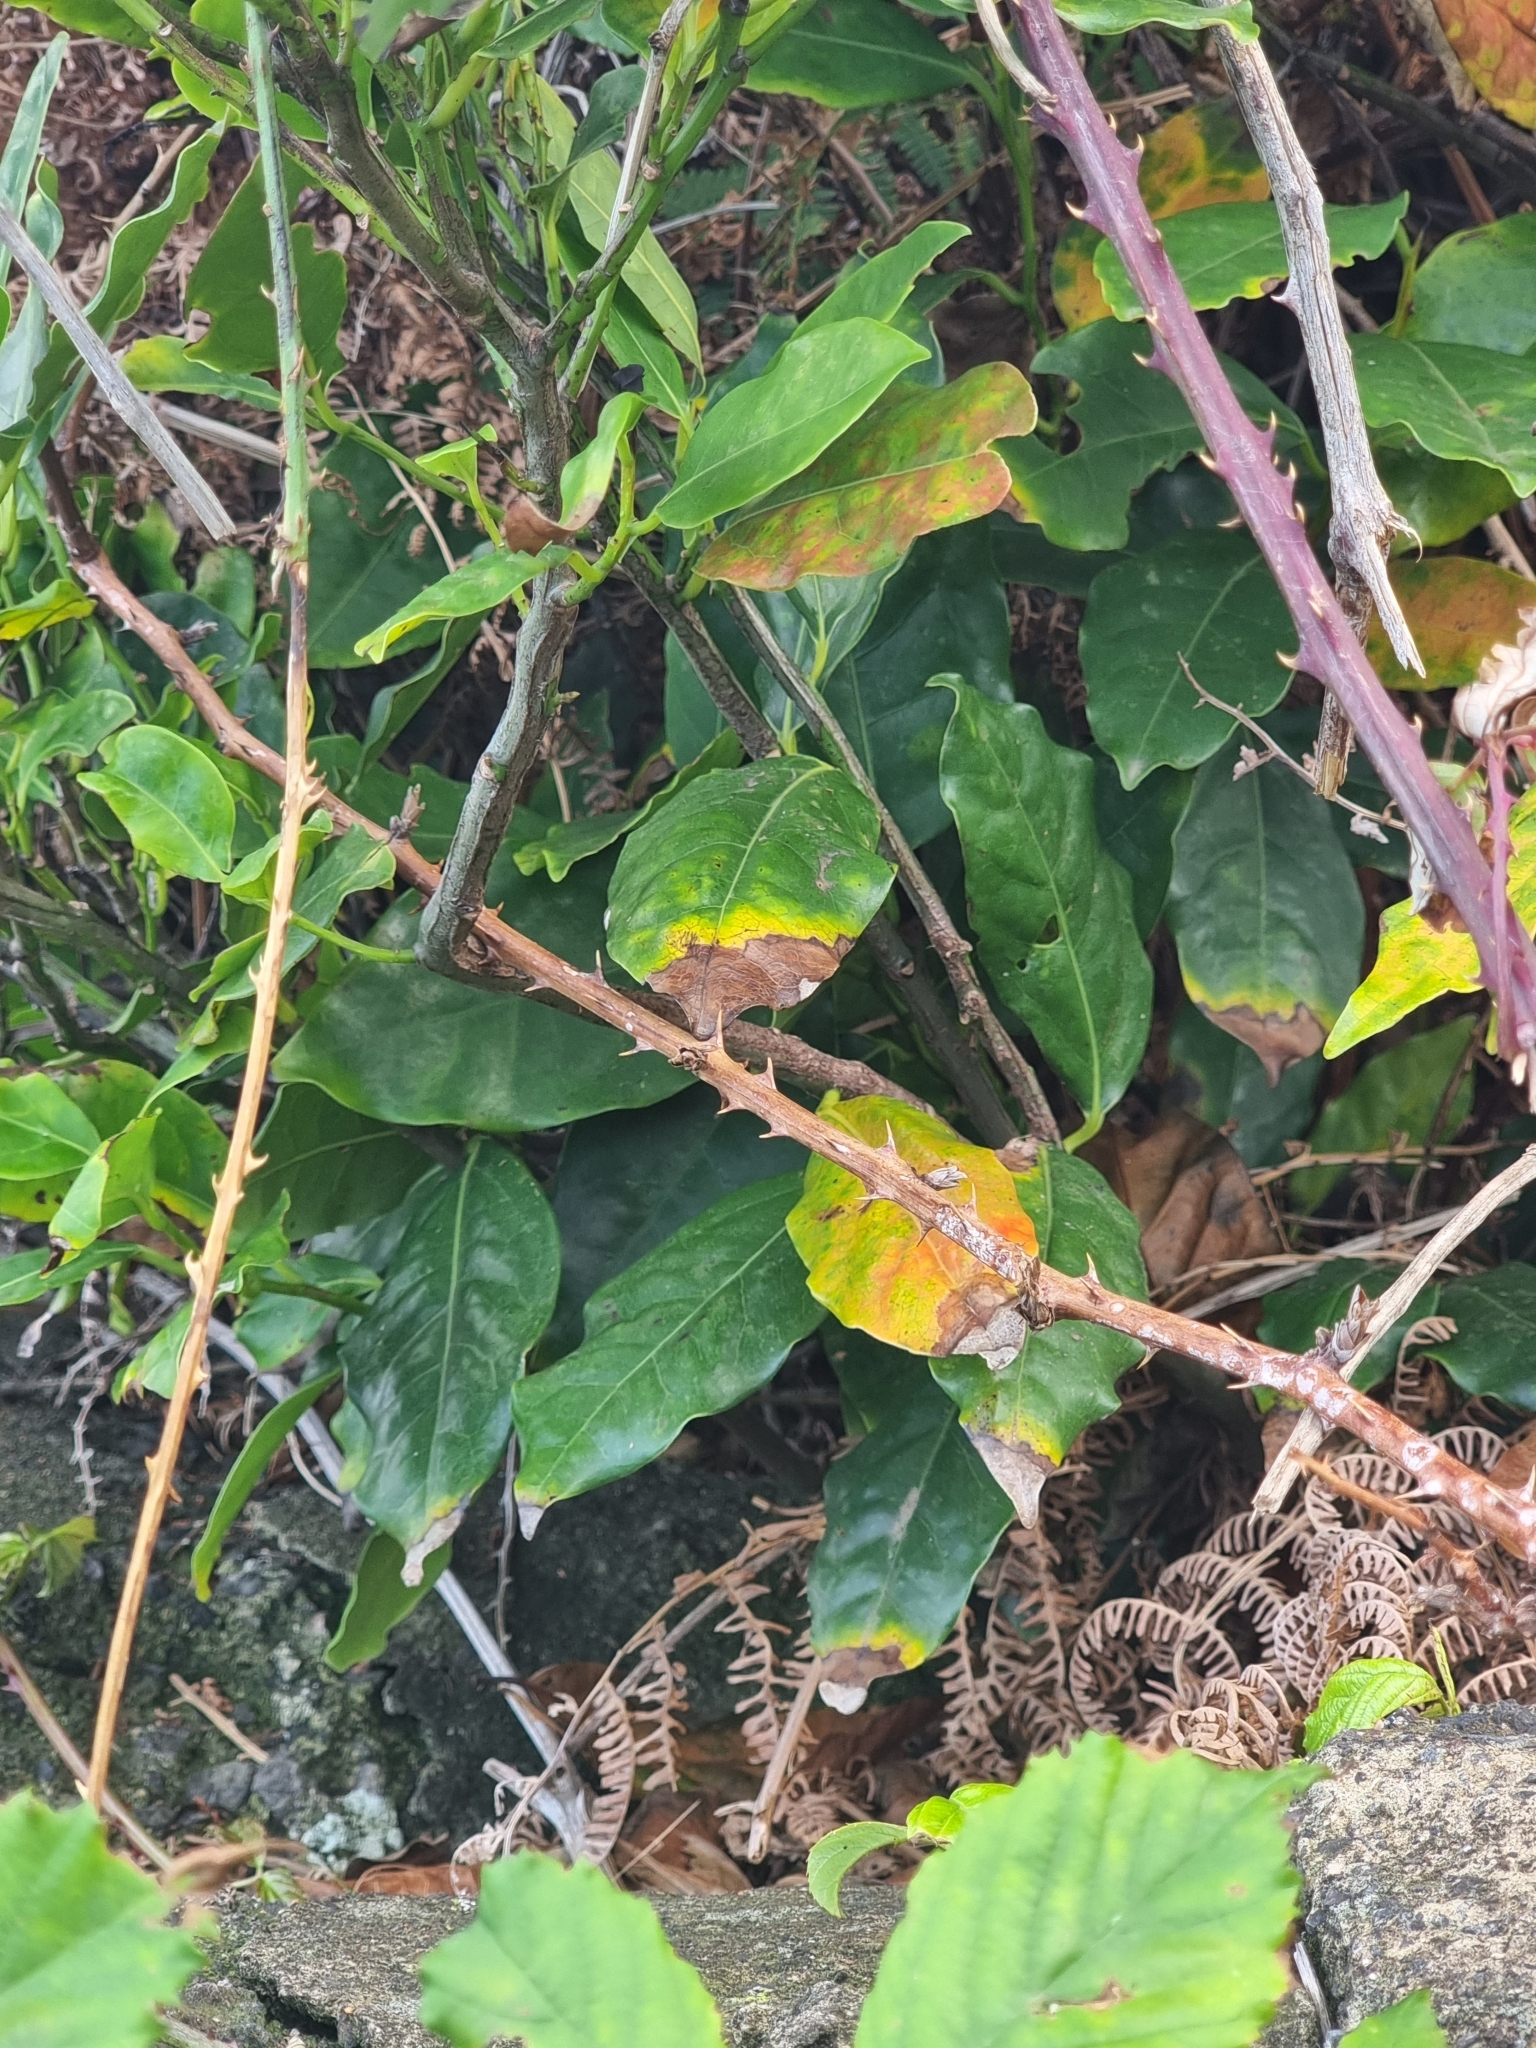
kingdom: Plantae
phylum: Tracheophyta
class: Magnoliopsida
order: Laurales
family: Lauraceae
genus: Mespilodaphne
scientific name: Mespilodaphne foetens
